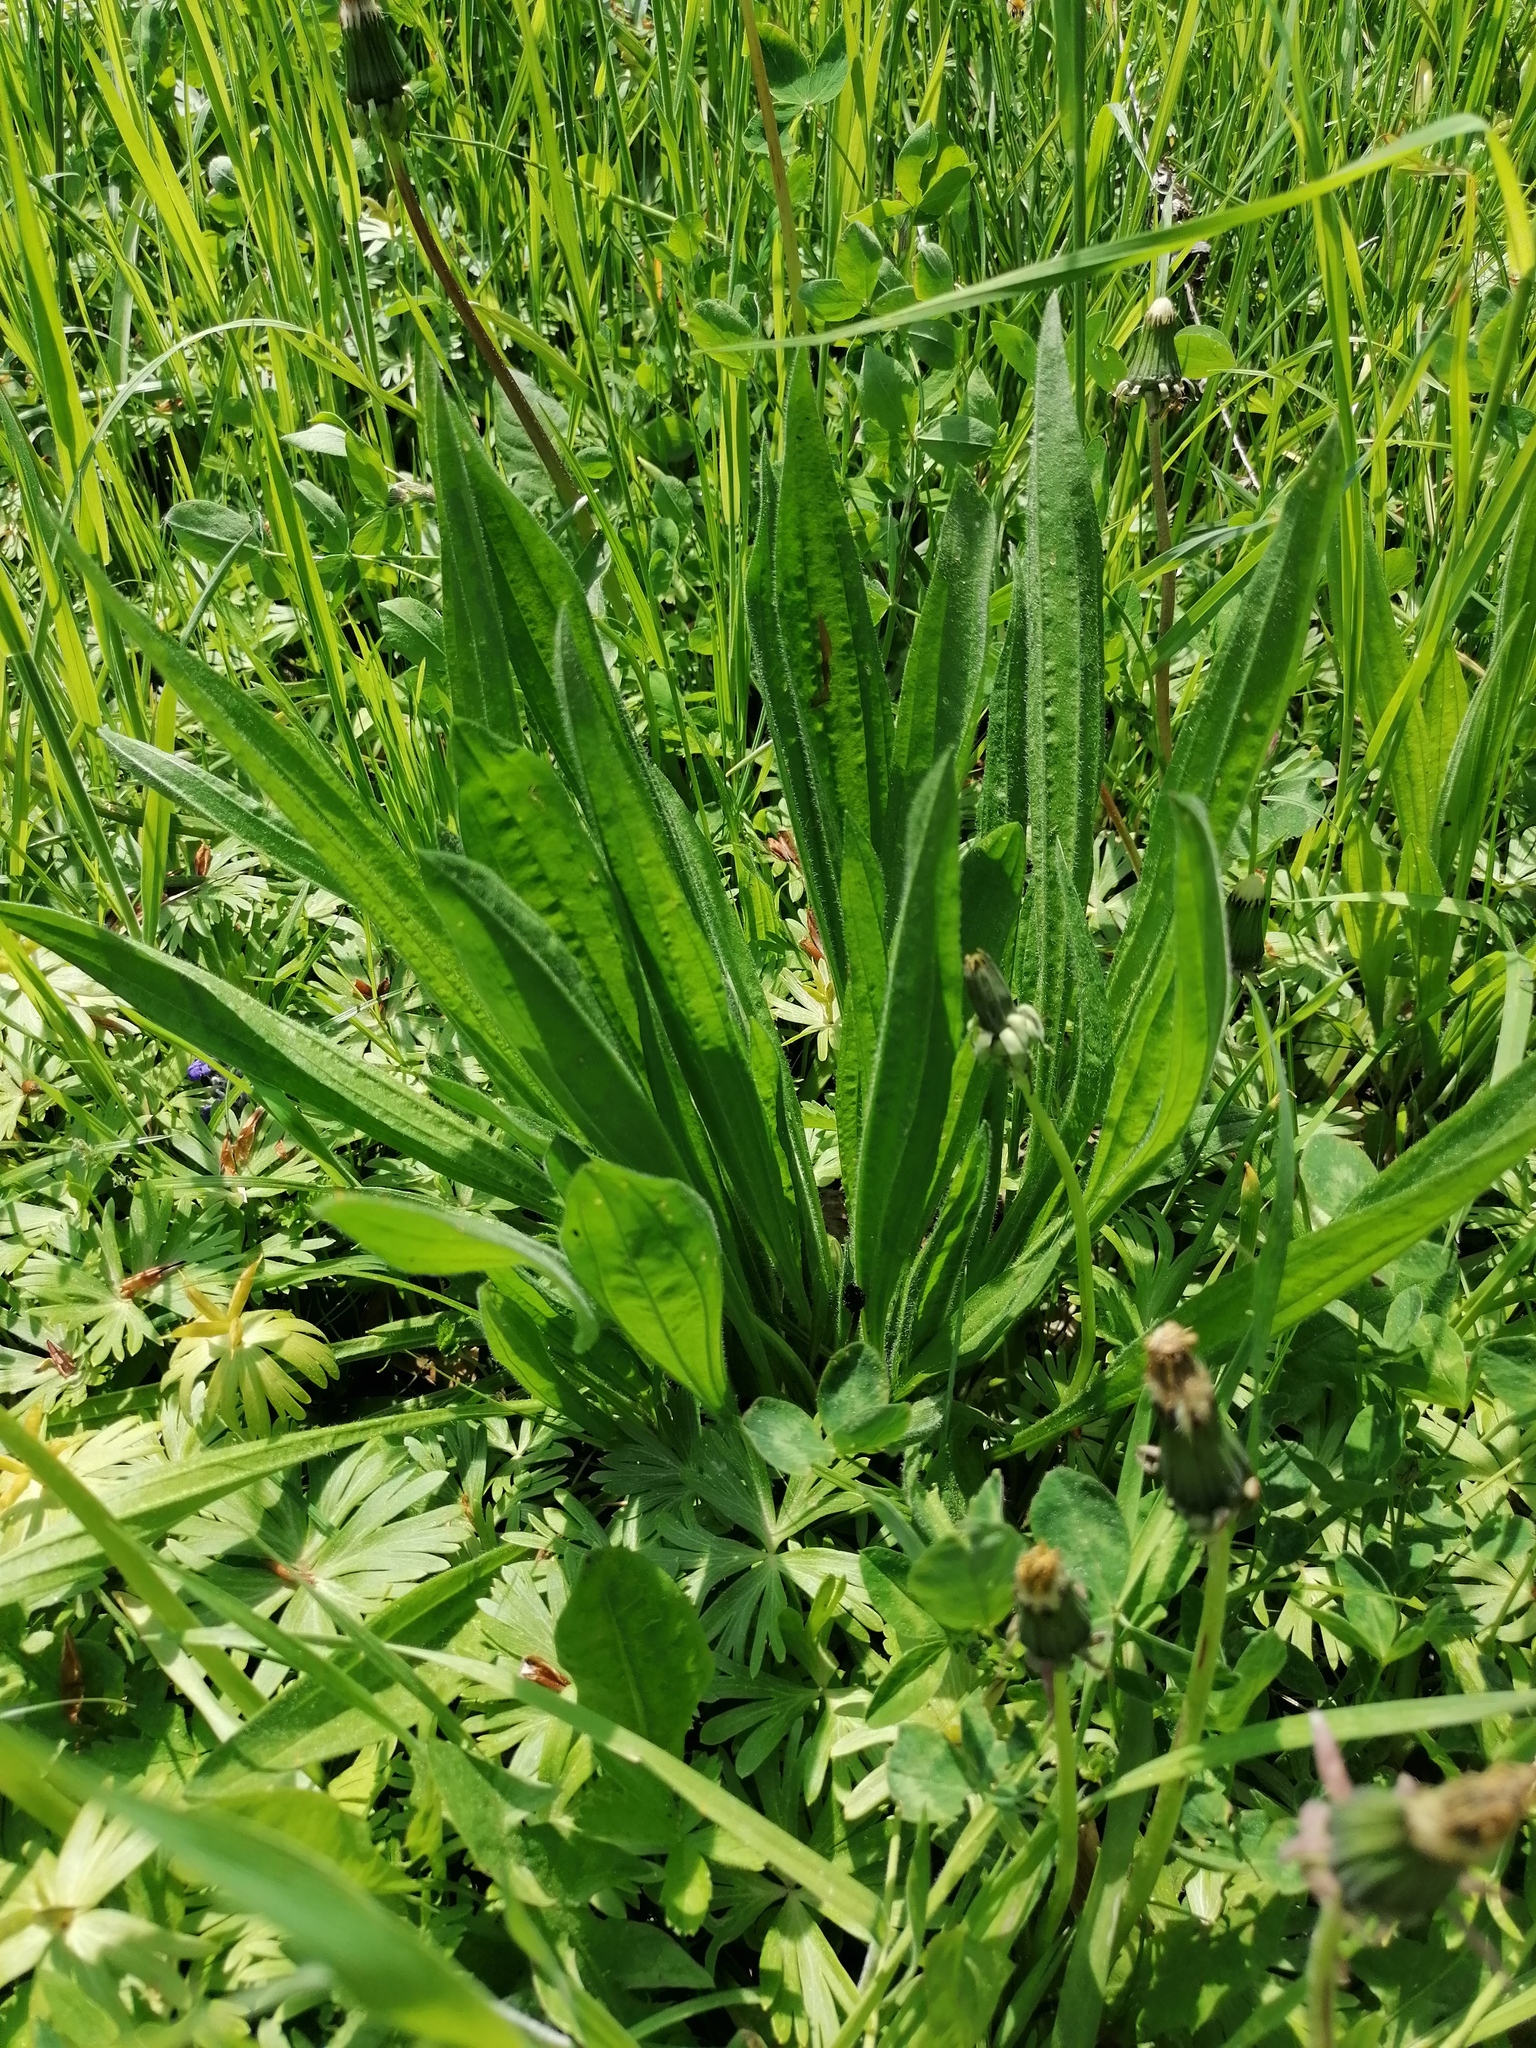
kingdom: Plantae
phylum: Tracheophyta
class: Magnoliopsida
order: Lamiales
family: Plantaginaceae
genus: Plantago
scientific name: Plantago lanceolata
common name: Ribwort plantain
